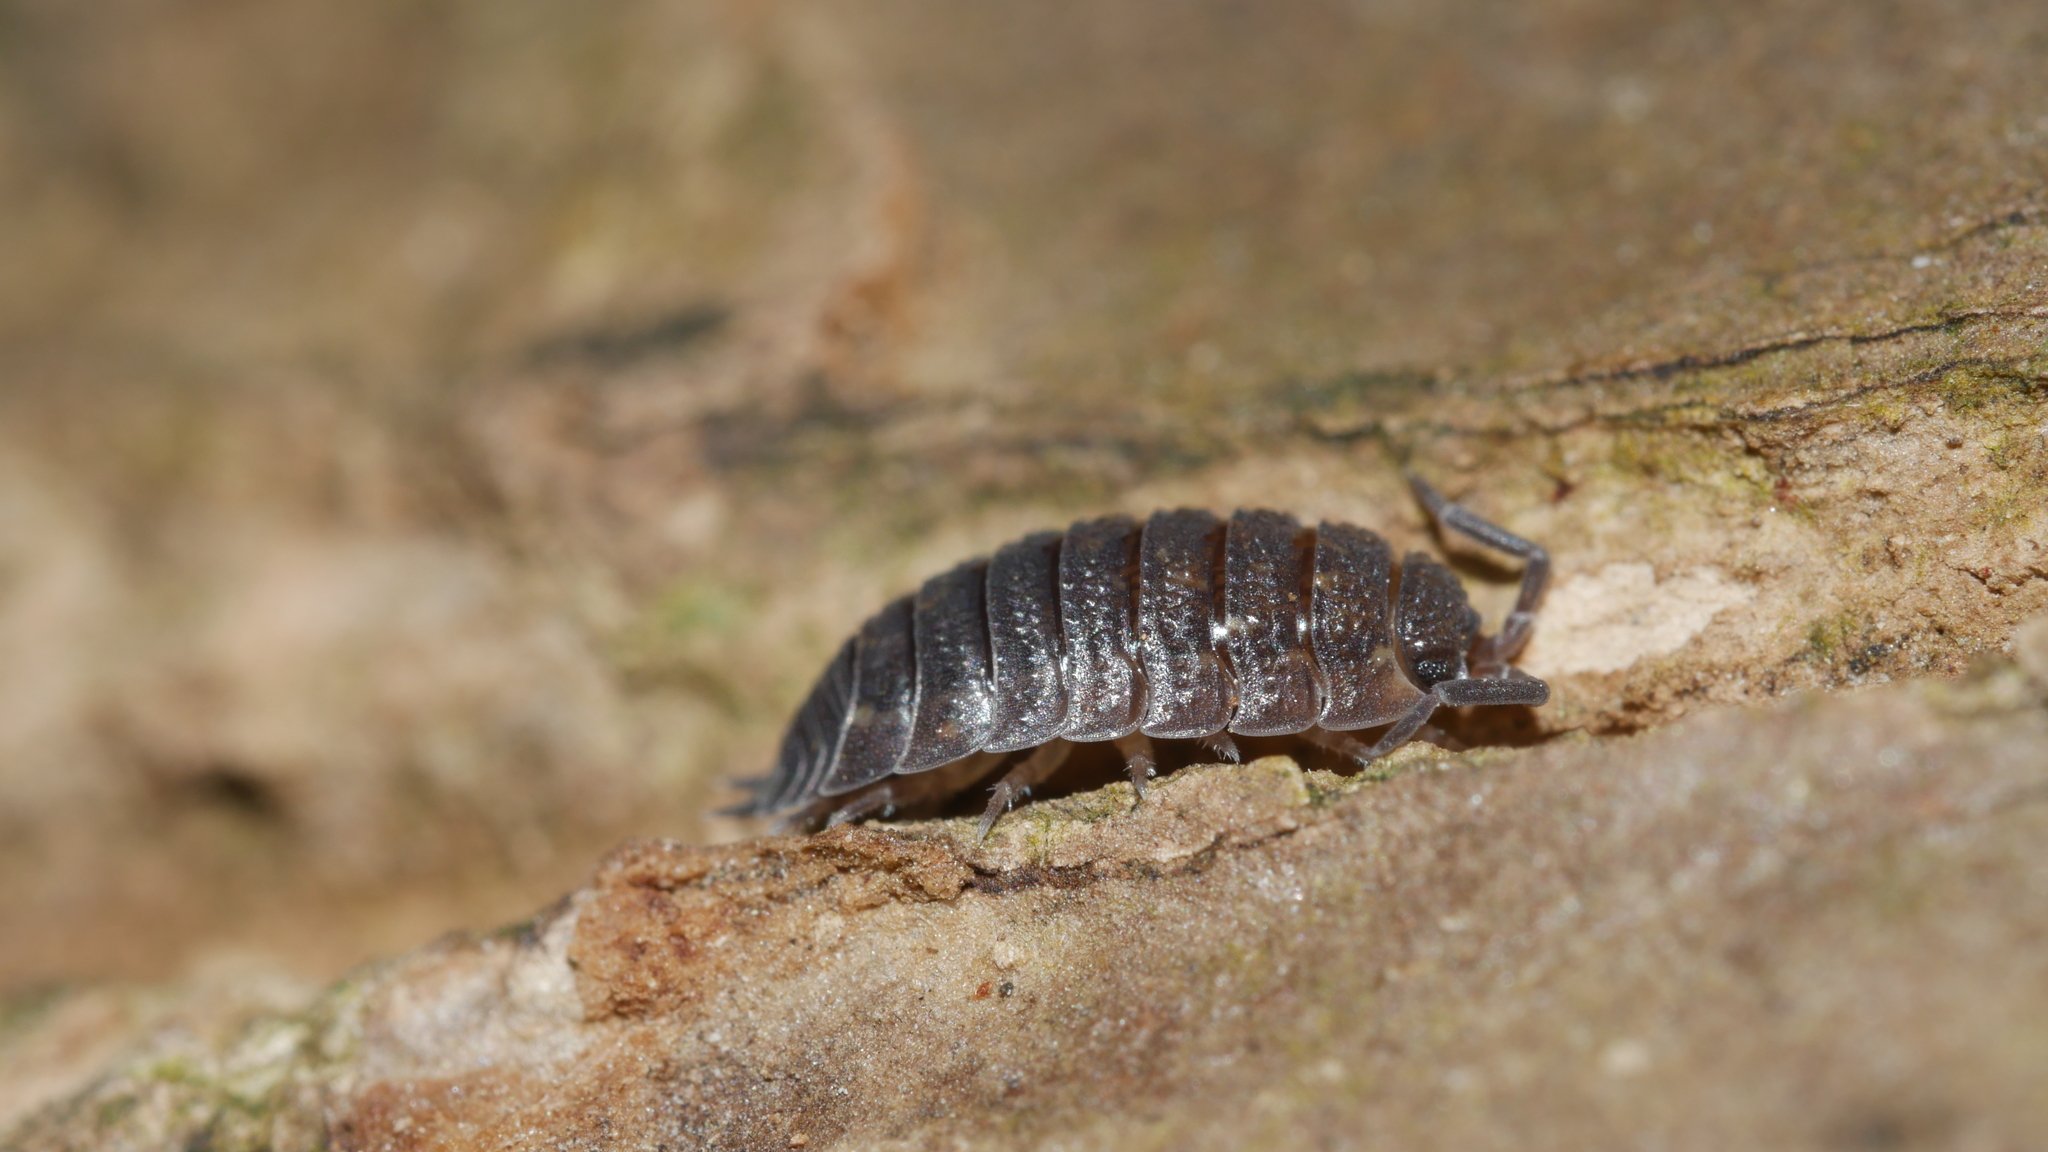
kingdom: Animalia
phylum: Arthropoda
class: Malacostraca
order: Isopoda
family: Porcellionidae
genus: Porcellio
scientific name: Porcellio scaber
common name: Common rough woodlouse
